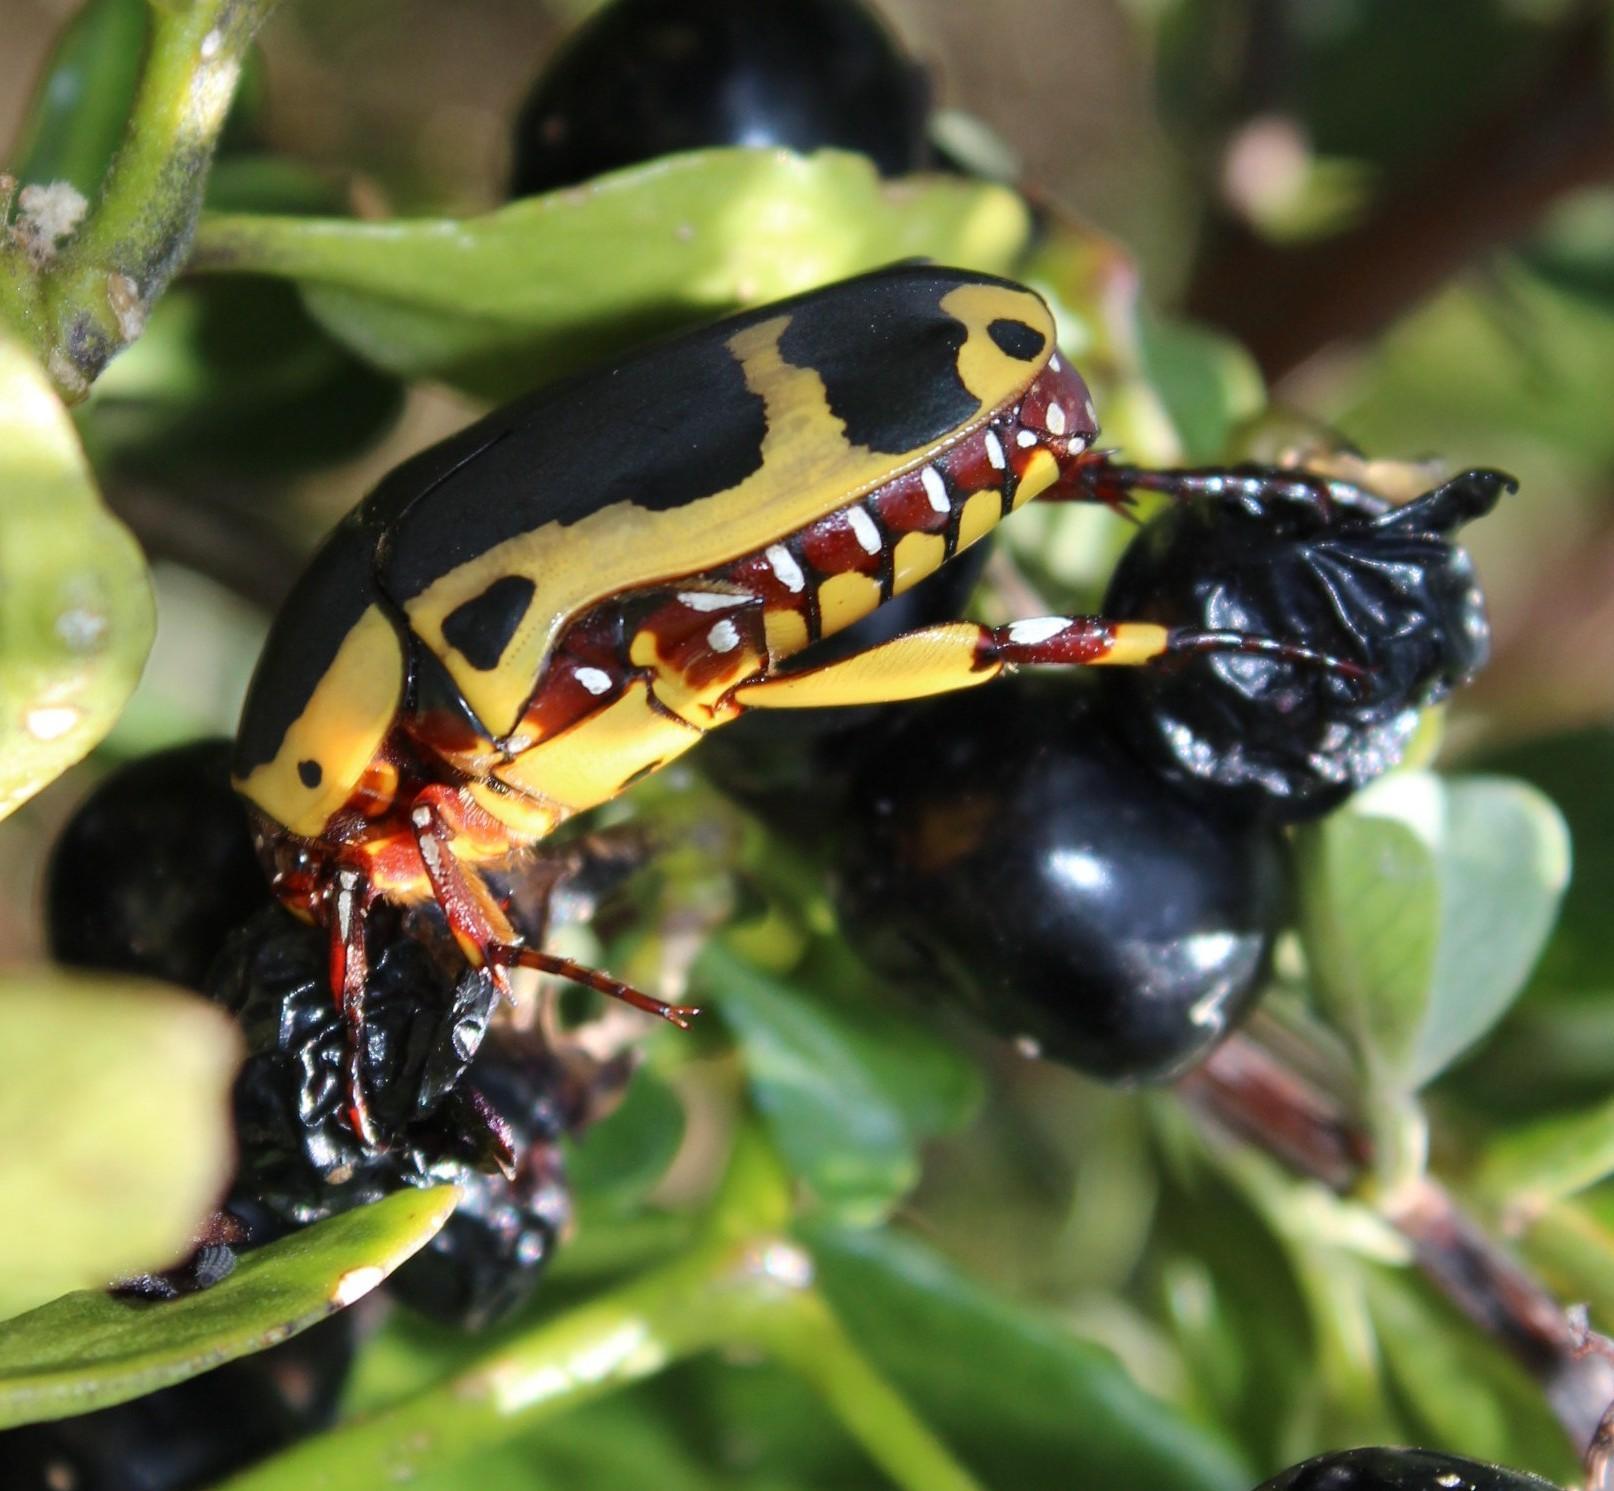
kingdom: Animalia
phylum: Arthropoda
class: Insecta
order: Coleoptera
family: Scarabaeidae
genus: Pachnoda
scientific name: Pachnoda sinuata
